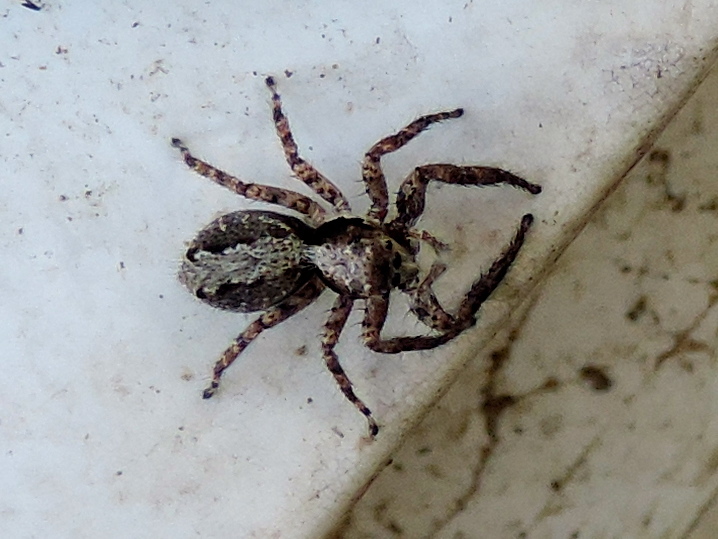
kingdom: Animalia
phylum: Arthropoda
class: Arachnida
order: Araneae
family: Salticidae
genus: Balmaceda
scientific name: Balmaceda
